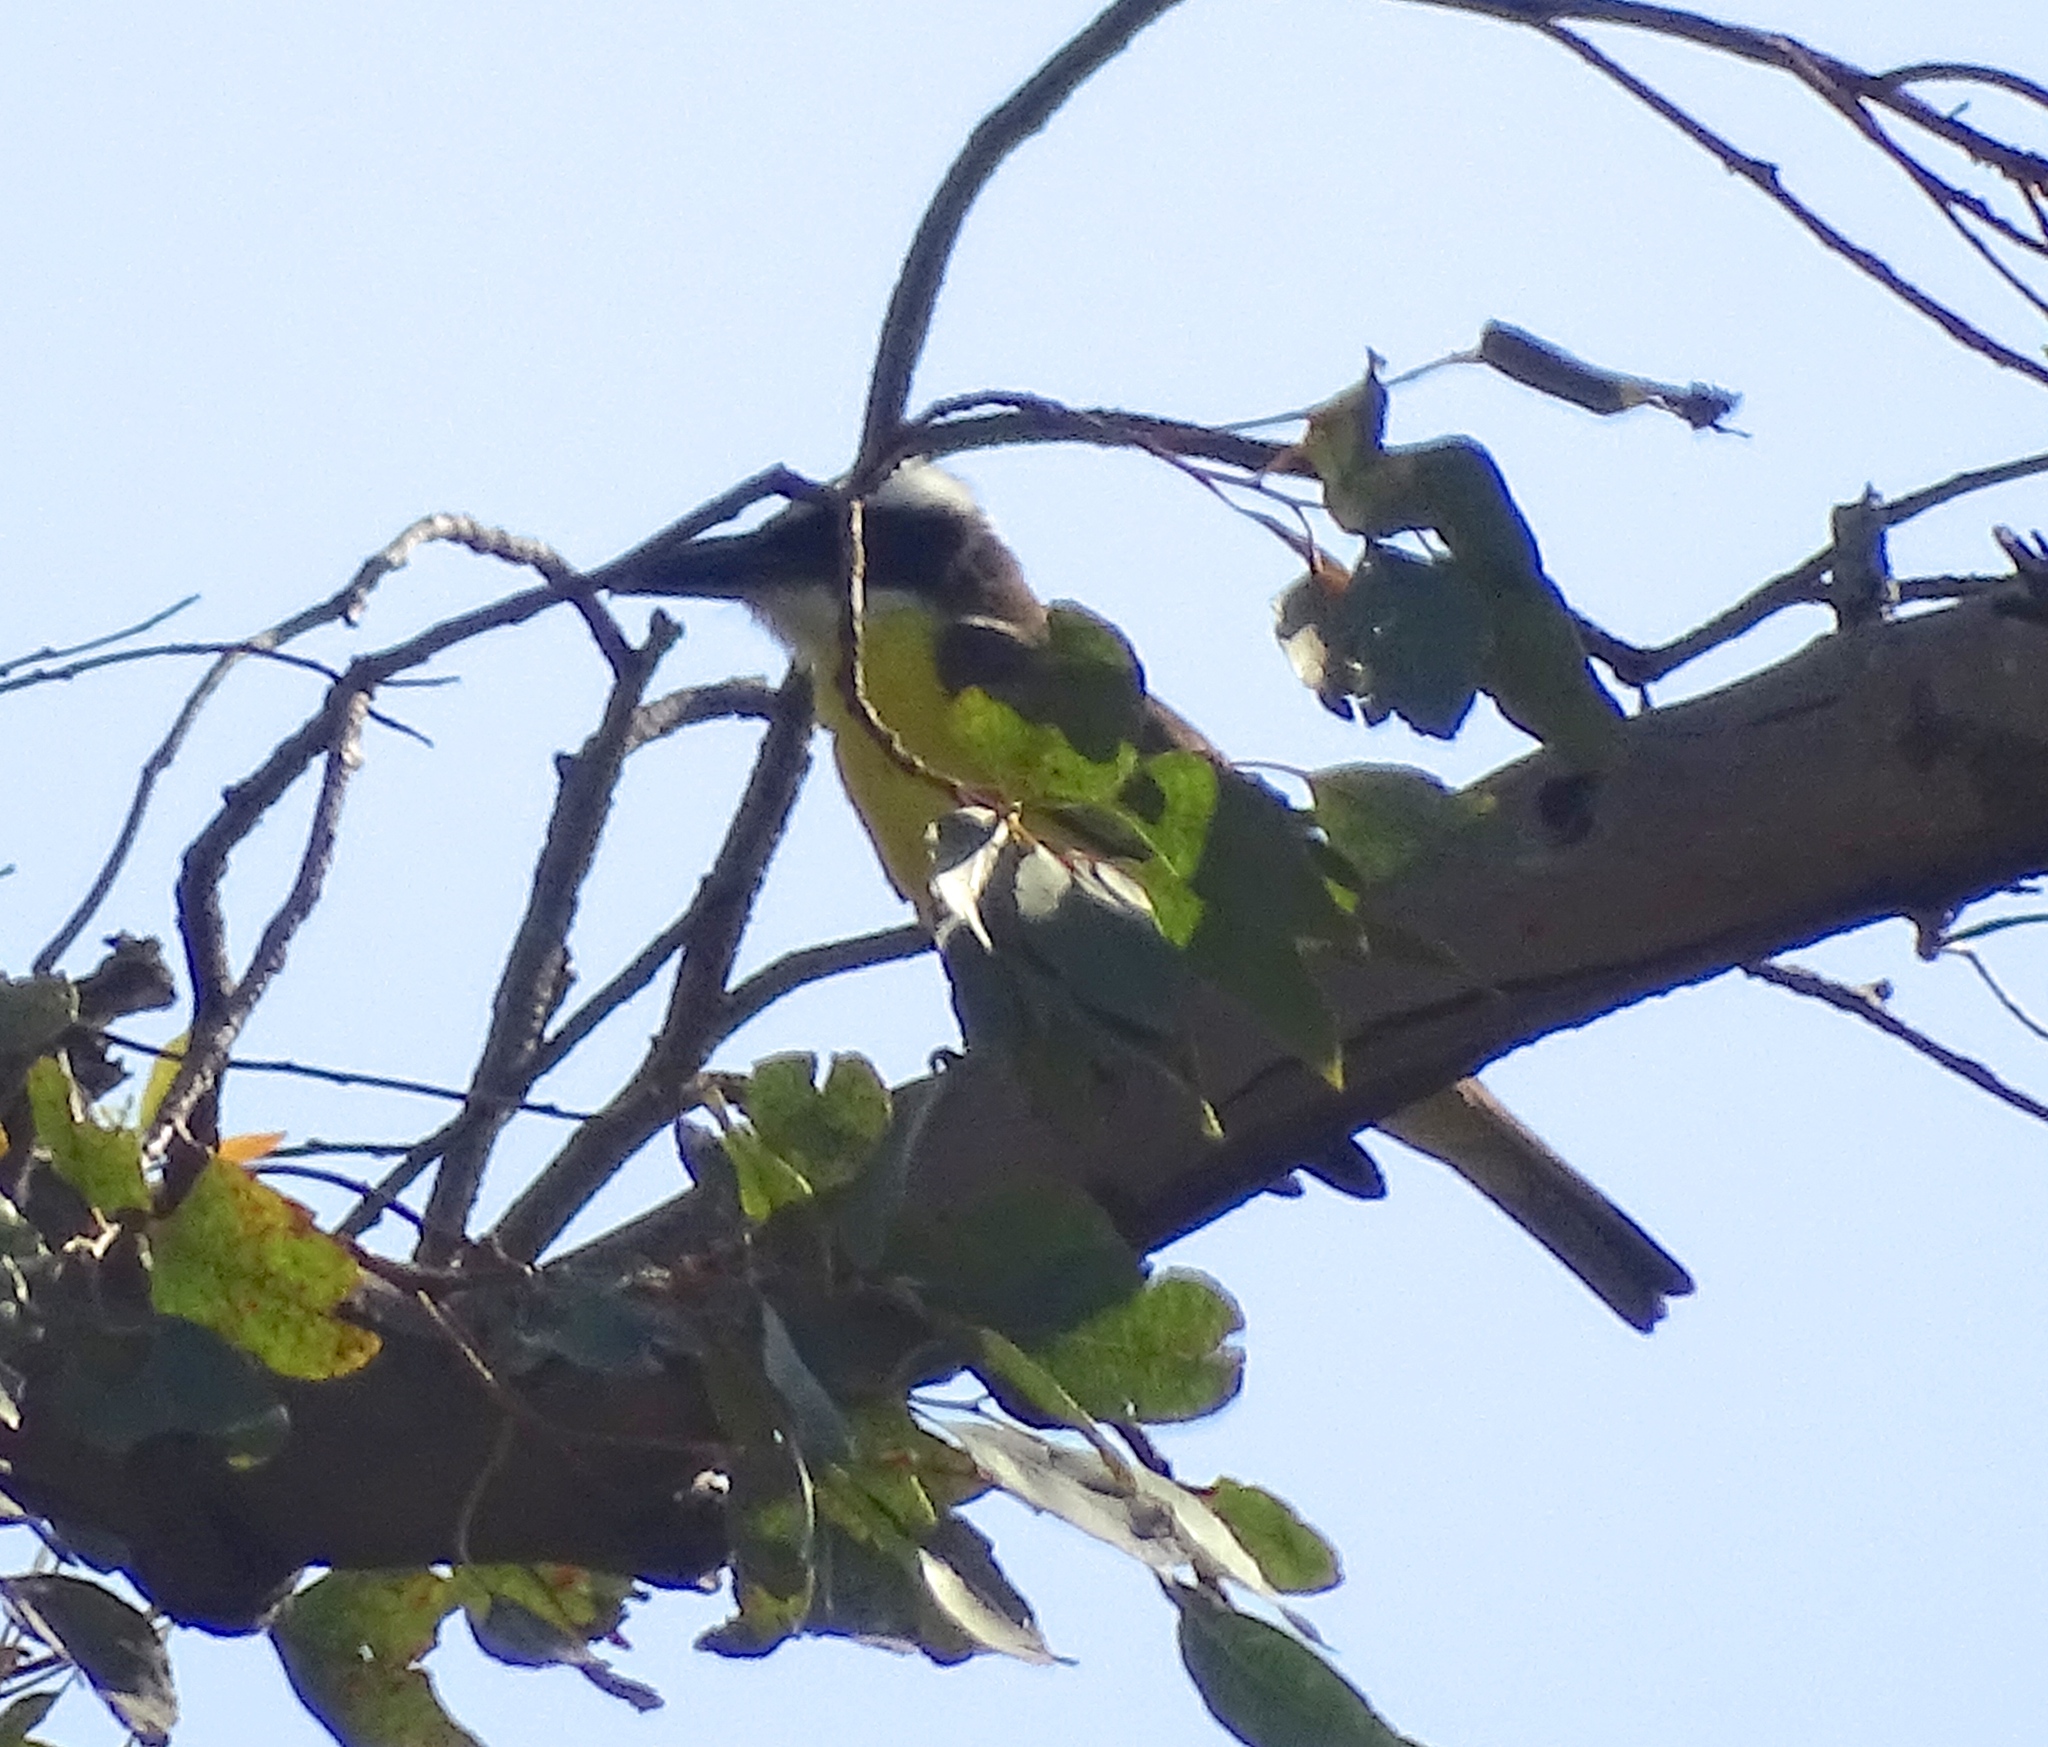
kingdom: Animalia
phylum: Chordata
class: Aves
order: Passeriformes
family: Tyrannidae
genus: Megarynchus
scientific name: Megarynchus pitangua
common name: Boat-billed flycatcher
